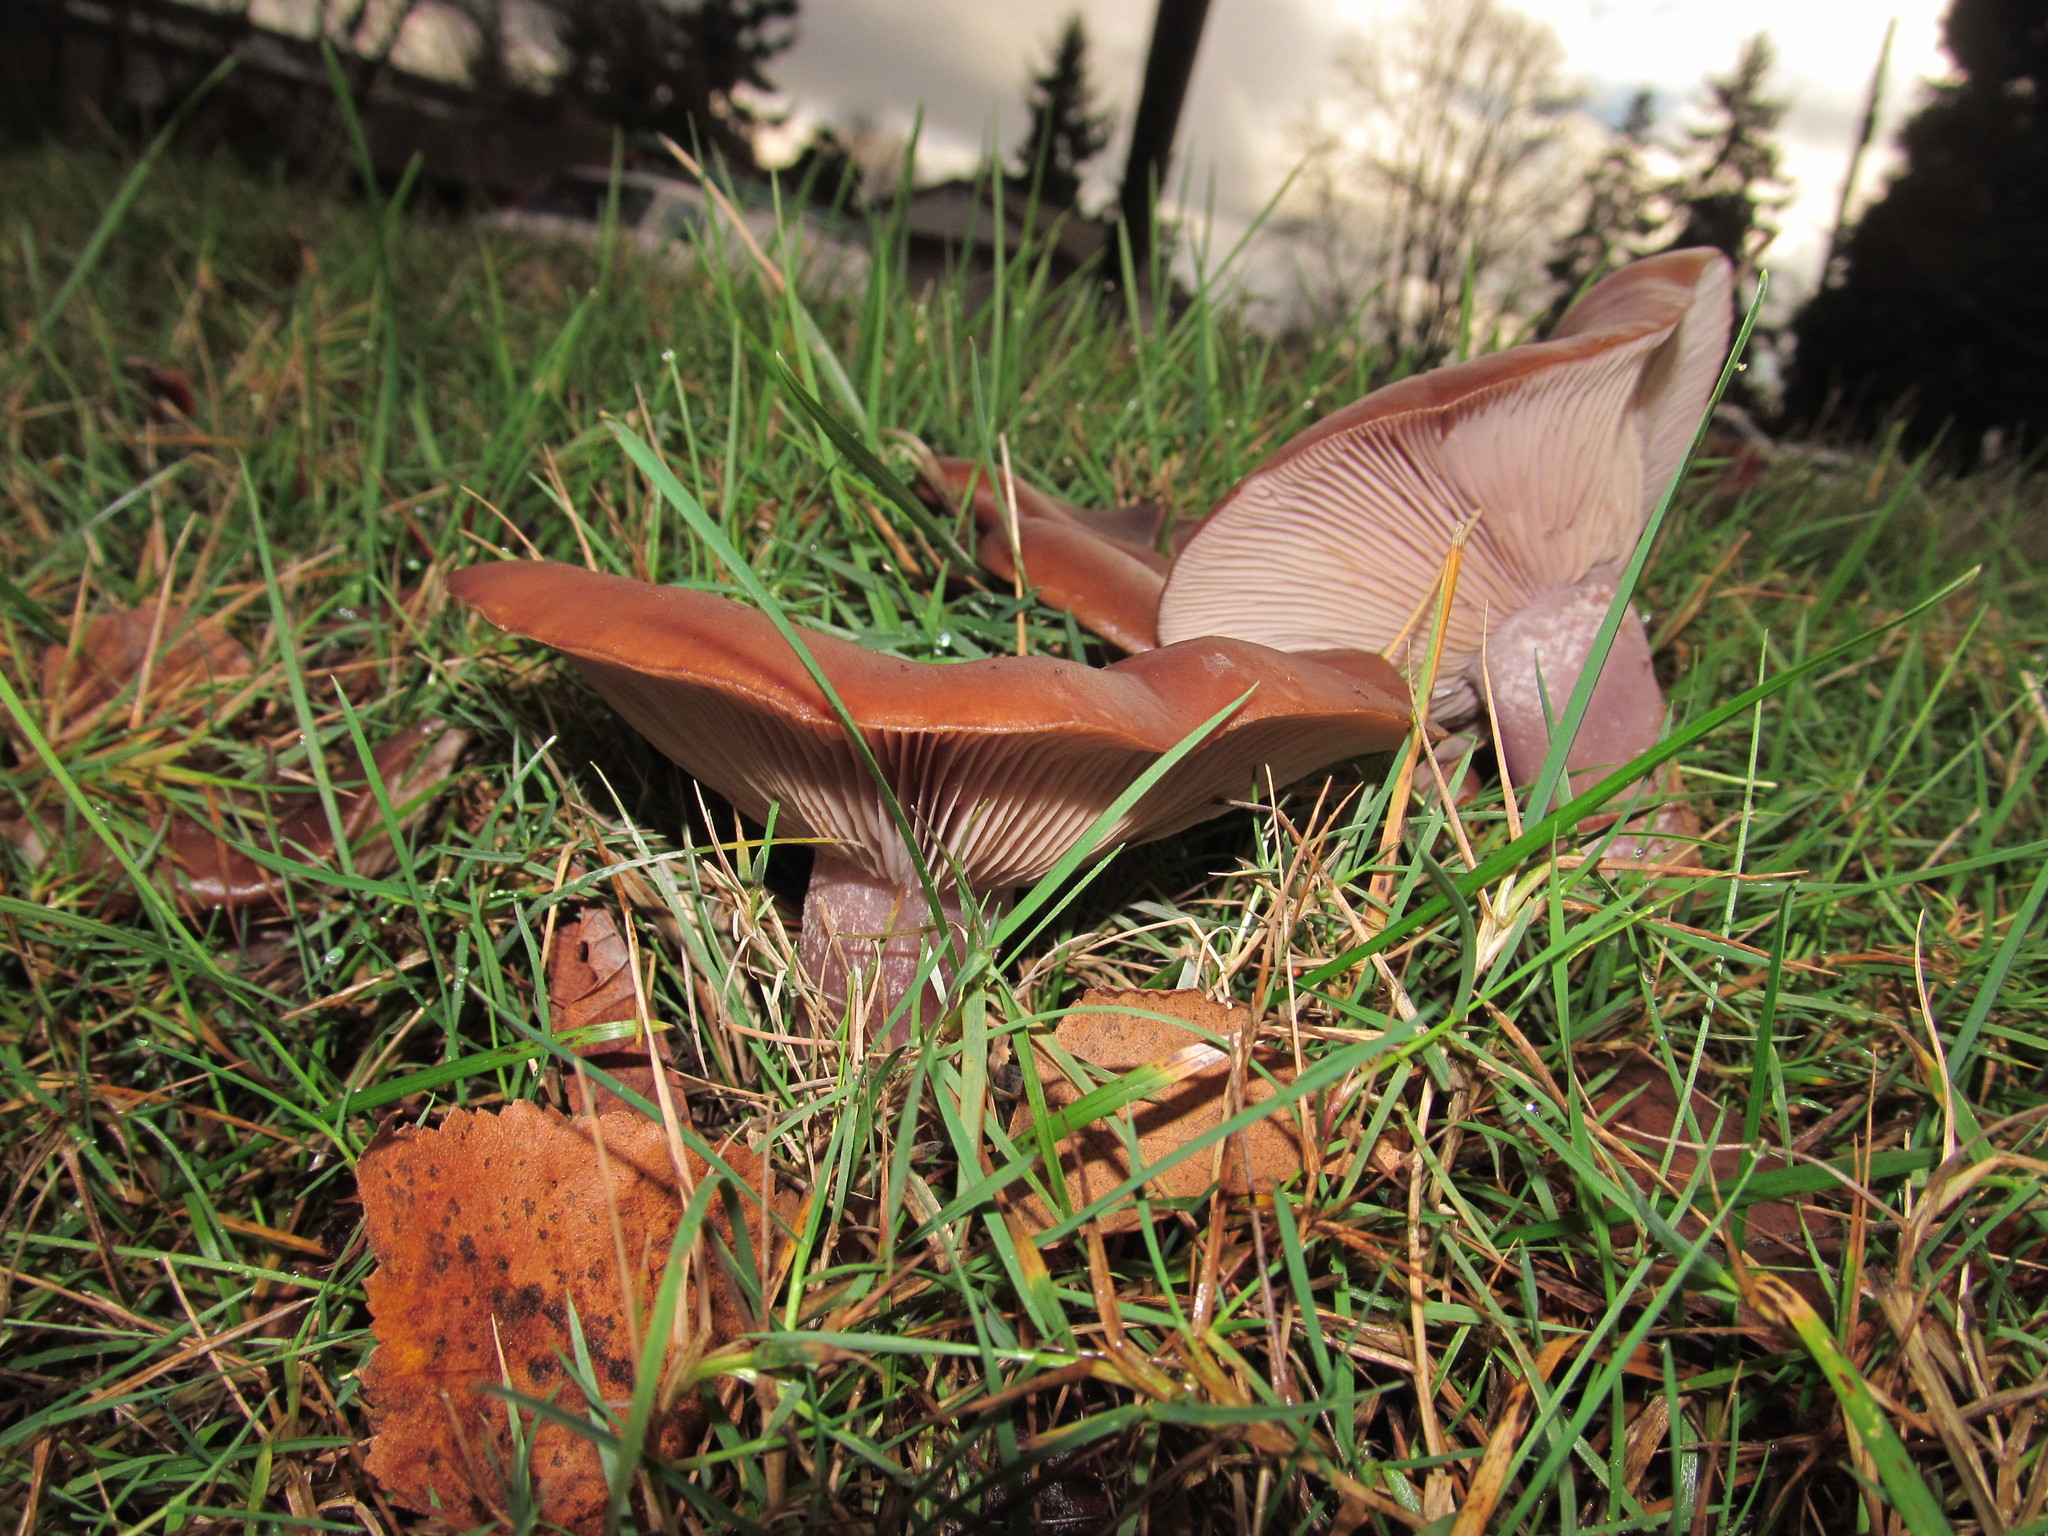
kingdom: Fungi
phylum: Basidiomycota
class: Agaricomycetes
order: Agaricales
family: Tricholomataceae
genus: Collybia
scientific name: Collybia
